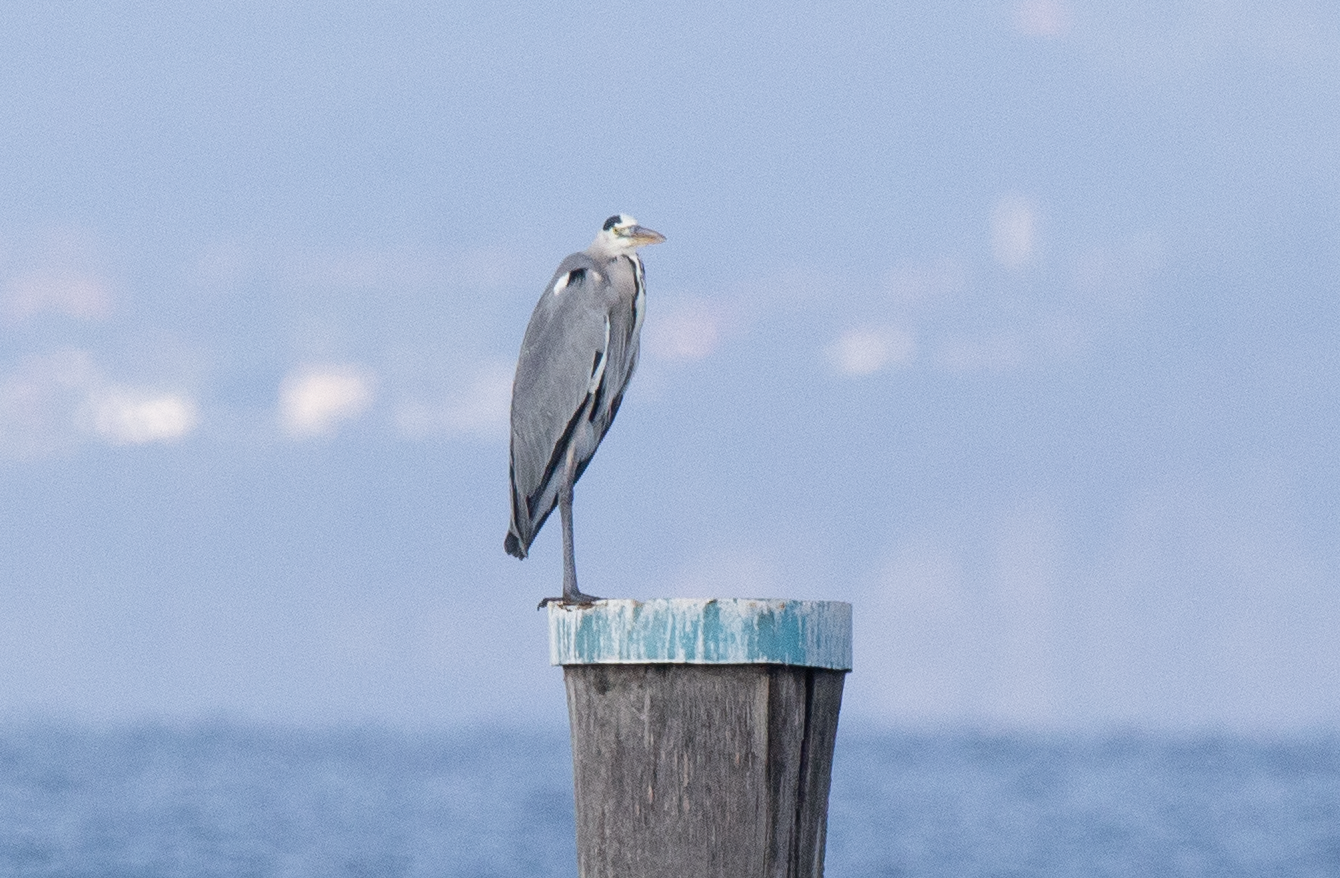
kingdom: Animalia
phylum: Chordata
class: Aves
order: Pelecaniformes
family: Ardeidae
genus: Ardea
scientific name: Ardea cinerea
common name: Grey heron
